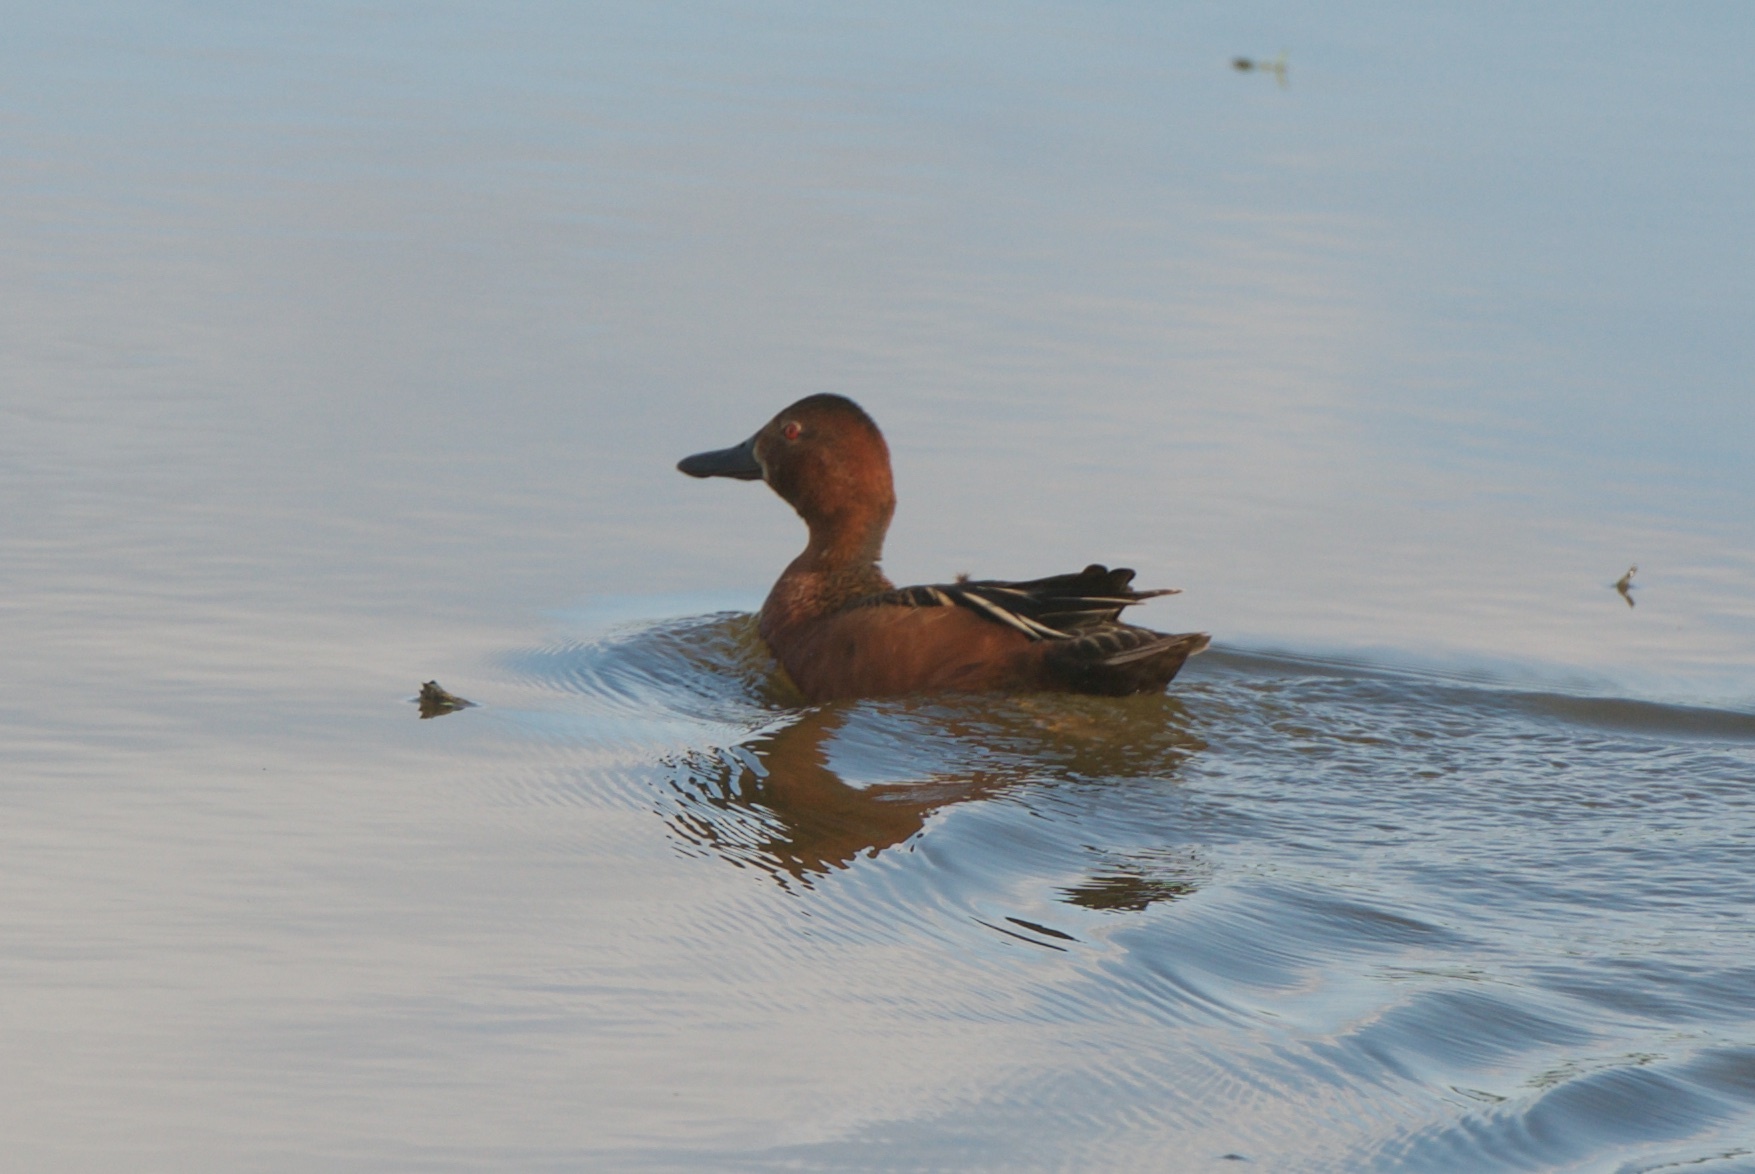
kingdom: Animalia
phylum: Chordata
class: Aves
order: Anseriformes
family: Anatidae
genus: Spatula
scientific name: Spatula cyanoptera
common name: Cinnamon teal
